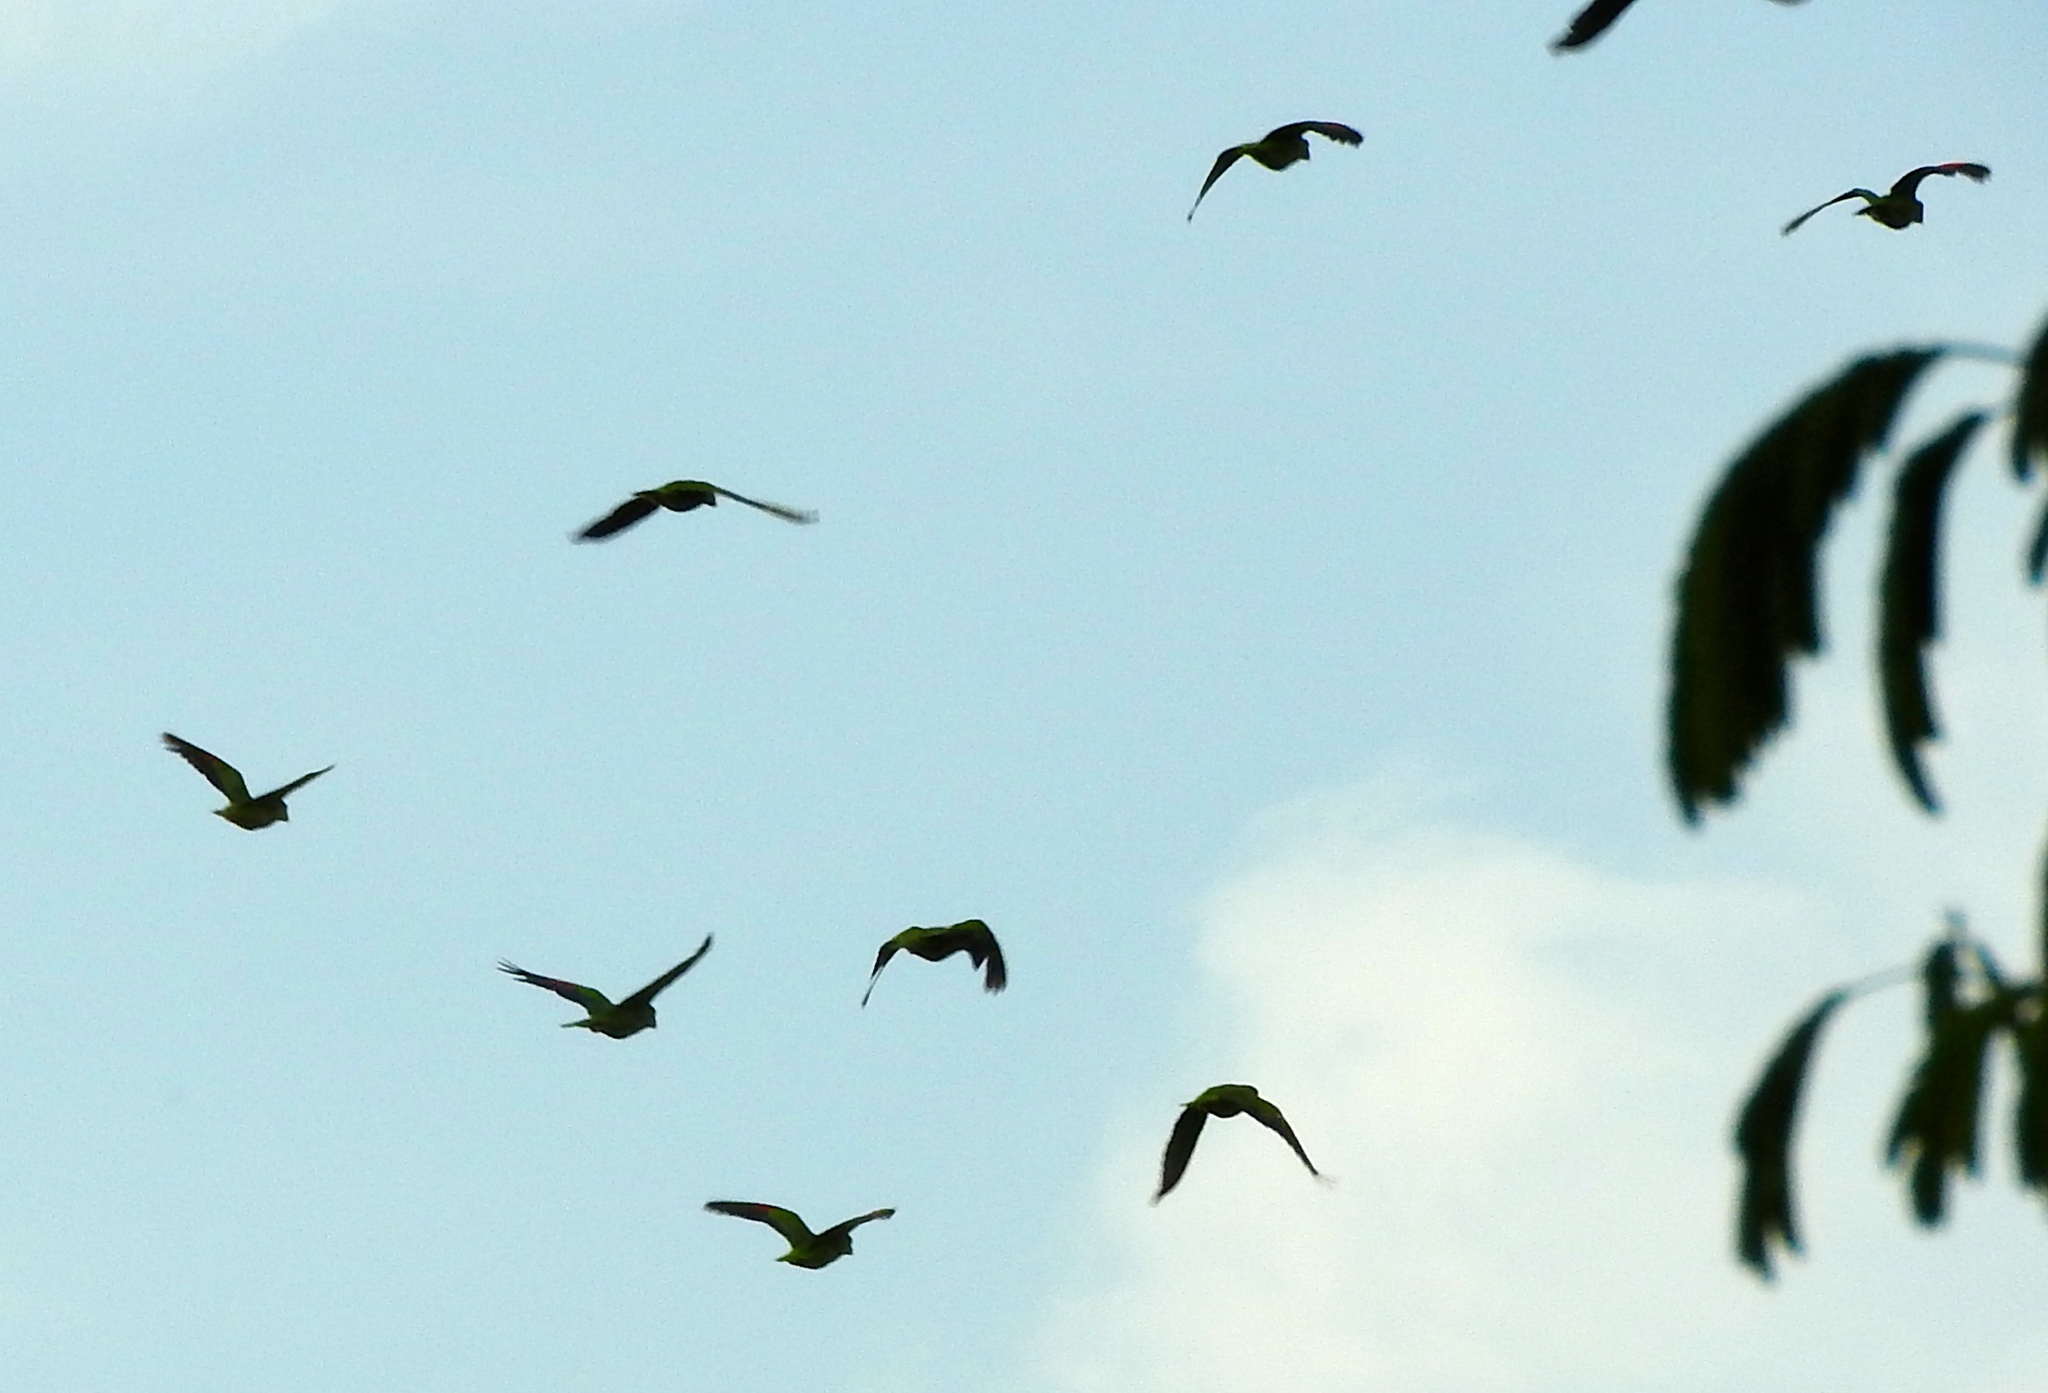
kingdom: Animalia
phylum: Chordata
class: Aves
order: Psittaciformes
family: Psittacidae
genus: Amazona
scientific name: Amazona albifrons
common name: White-fronted amazon
